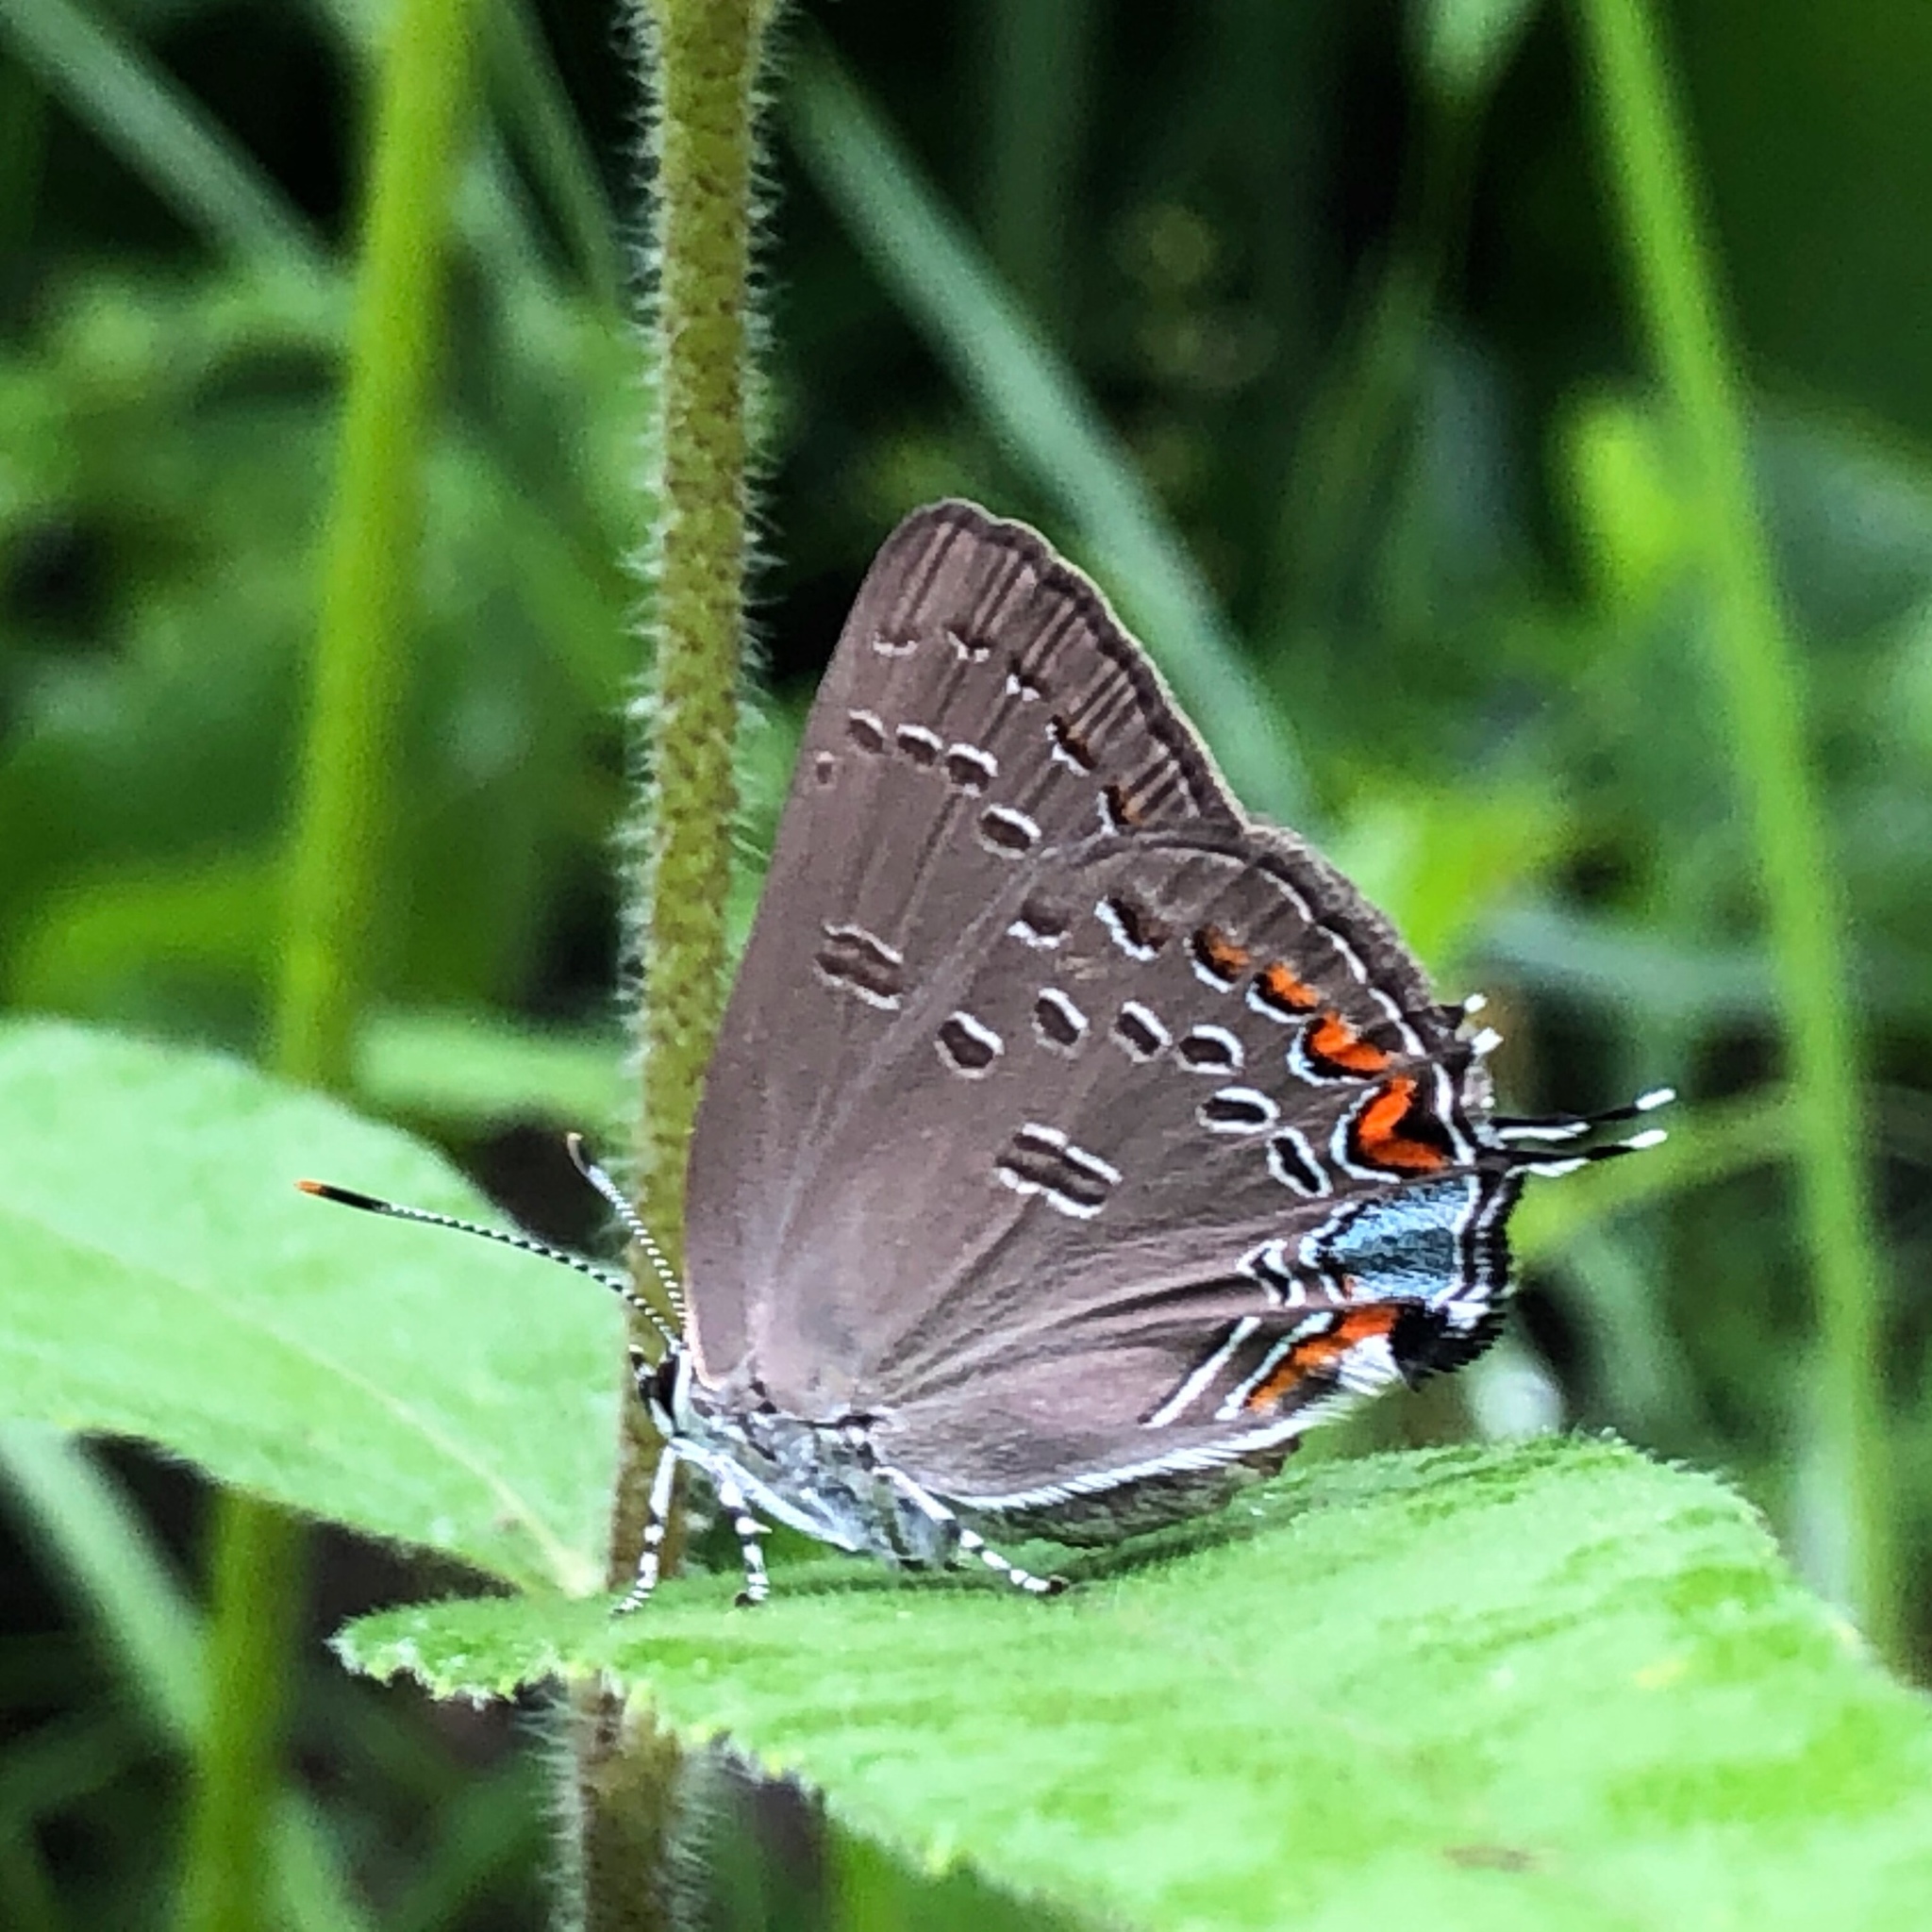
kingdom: Animalia
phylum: Arthropoda
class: Insecta
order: Lepidoptera
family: Lycaenidae
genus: Satyrium
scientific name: Satyrium edwardsii
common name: Edwards' hairstreak
